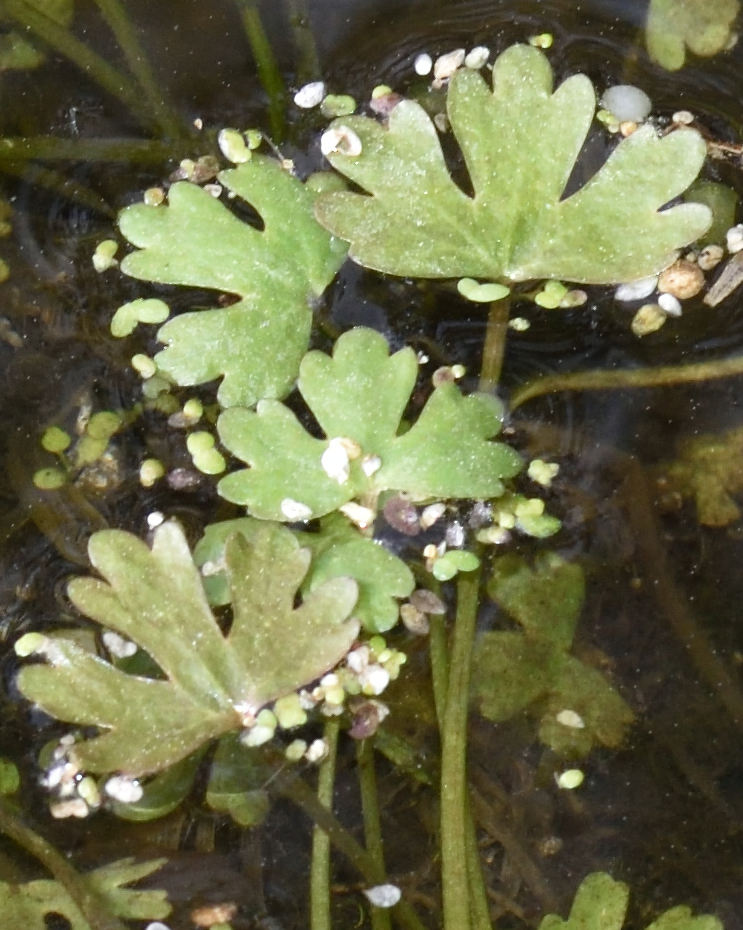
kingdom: Plantae
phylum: Tracheophyta
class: Magnoliopsida
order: Ranunculales
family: Ranunculaceae
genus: Ranunculus
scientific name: Ranunculus sceleratus
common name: Celery-leaved buttercup
